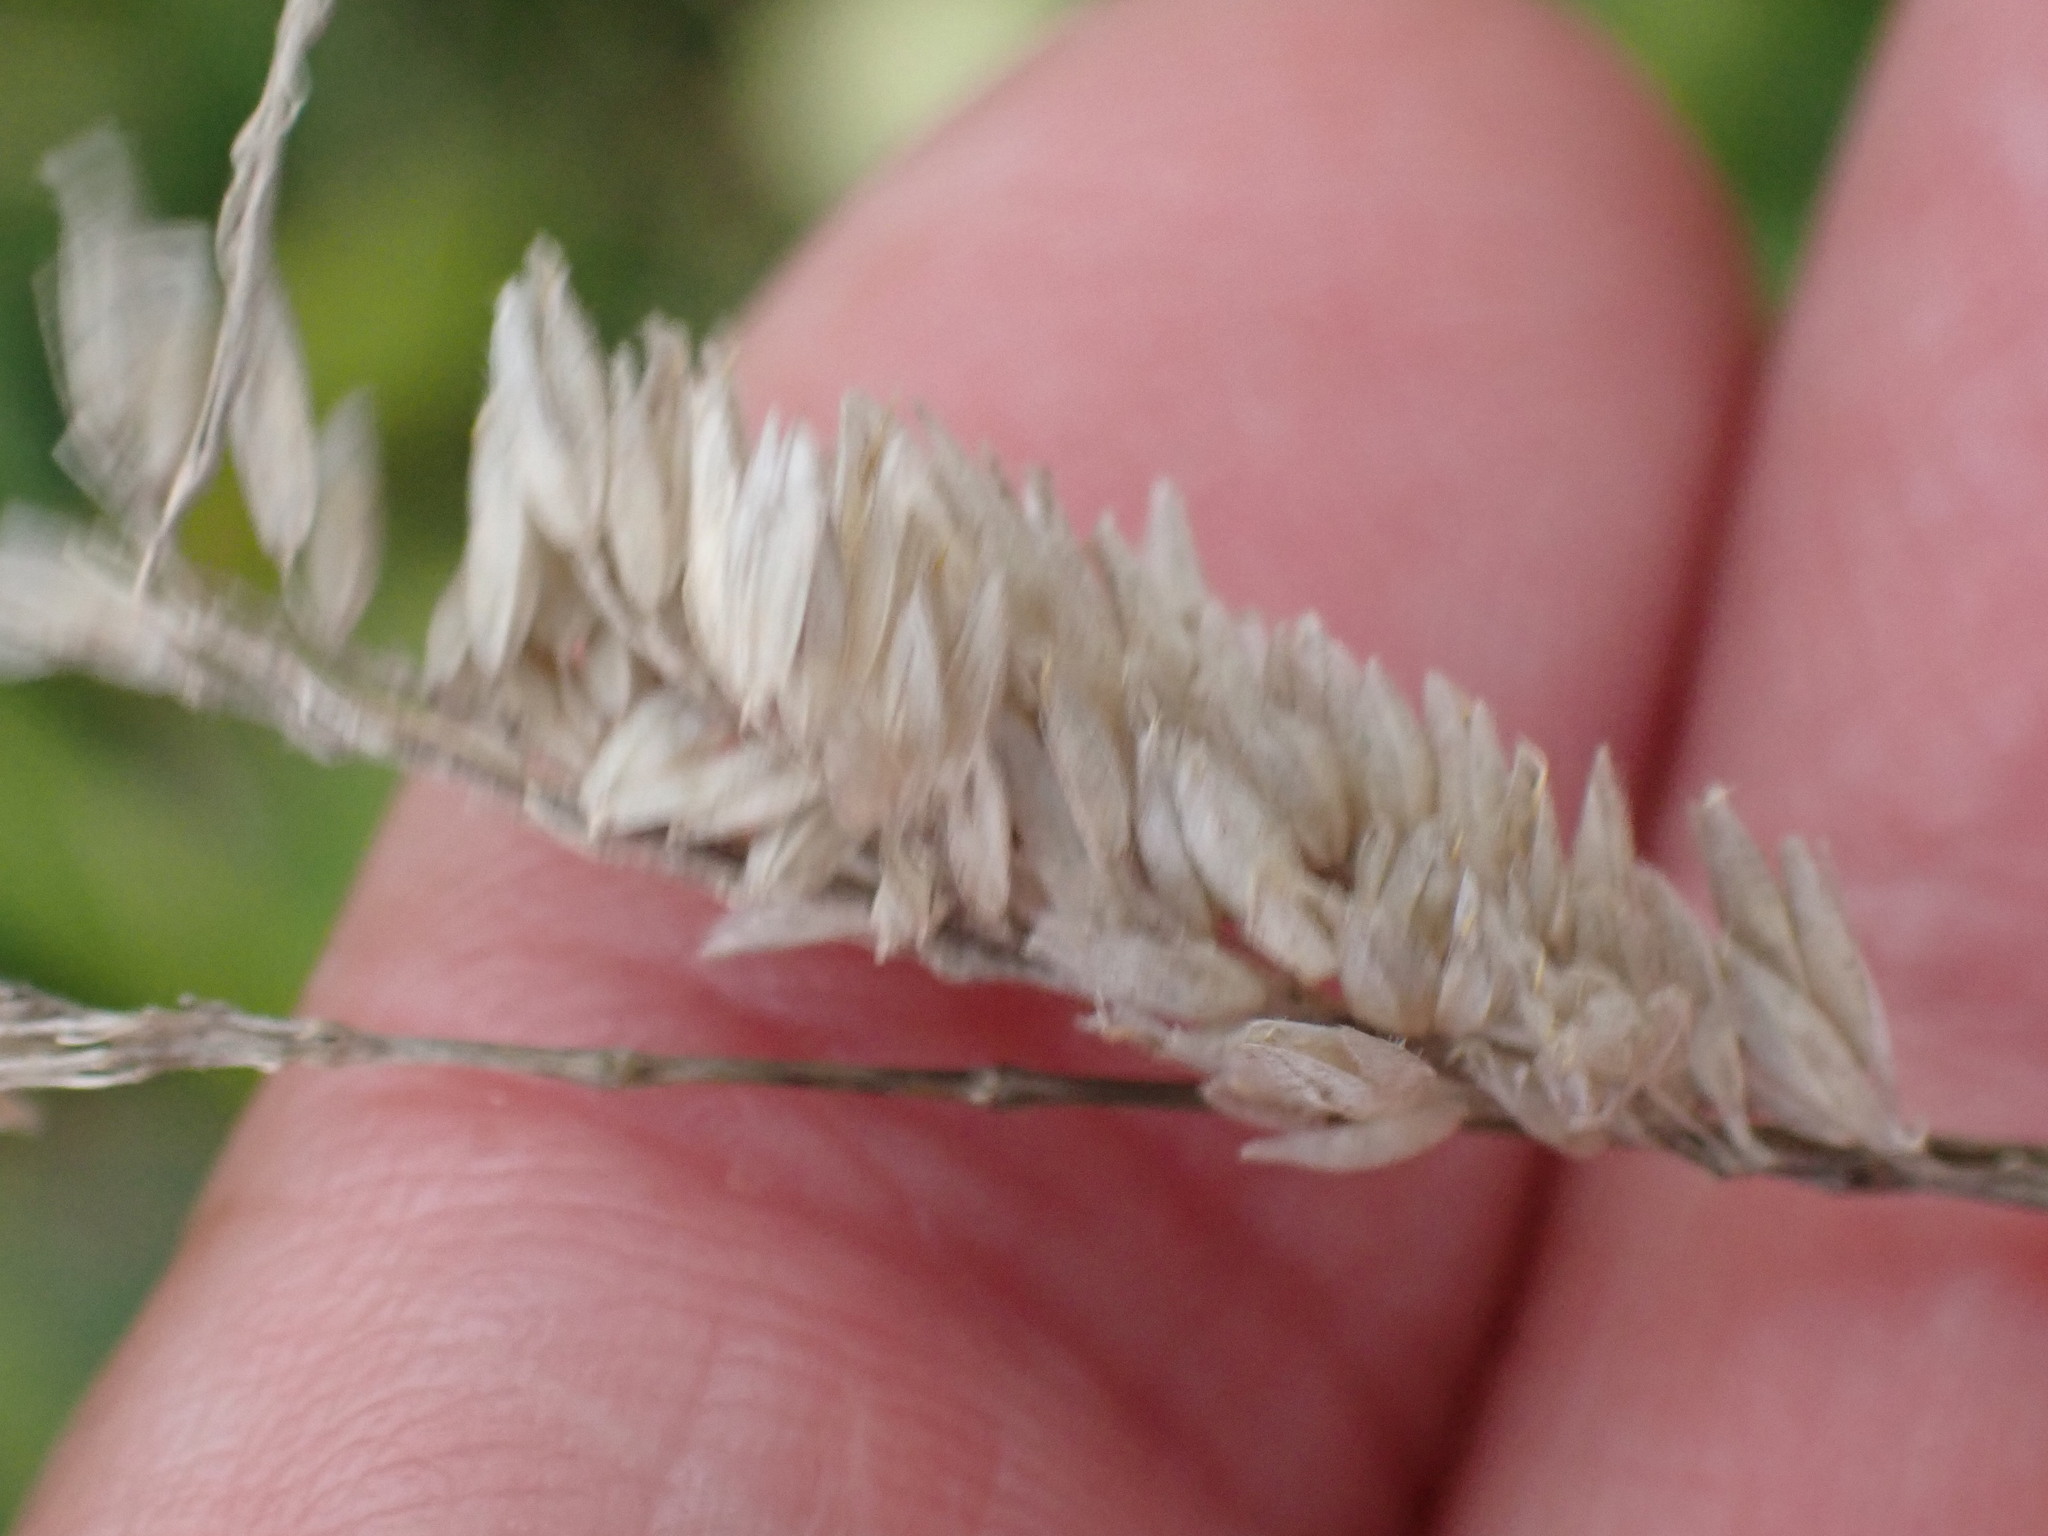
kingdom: Plantae
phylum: Tracheophyta
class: Liliopsida
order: Poales
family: Poaceae
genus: Holcus
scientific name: Holcus lanatus
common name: Yorkshire-fog
